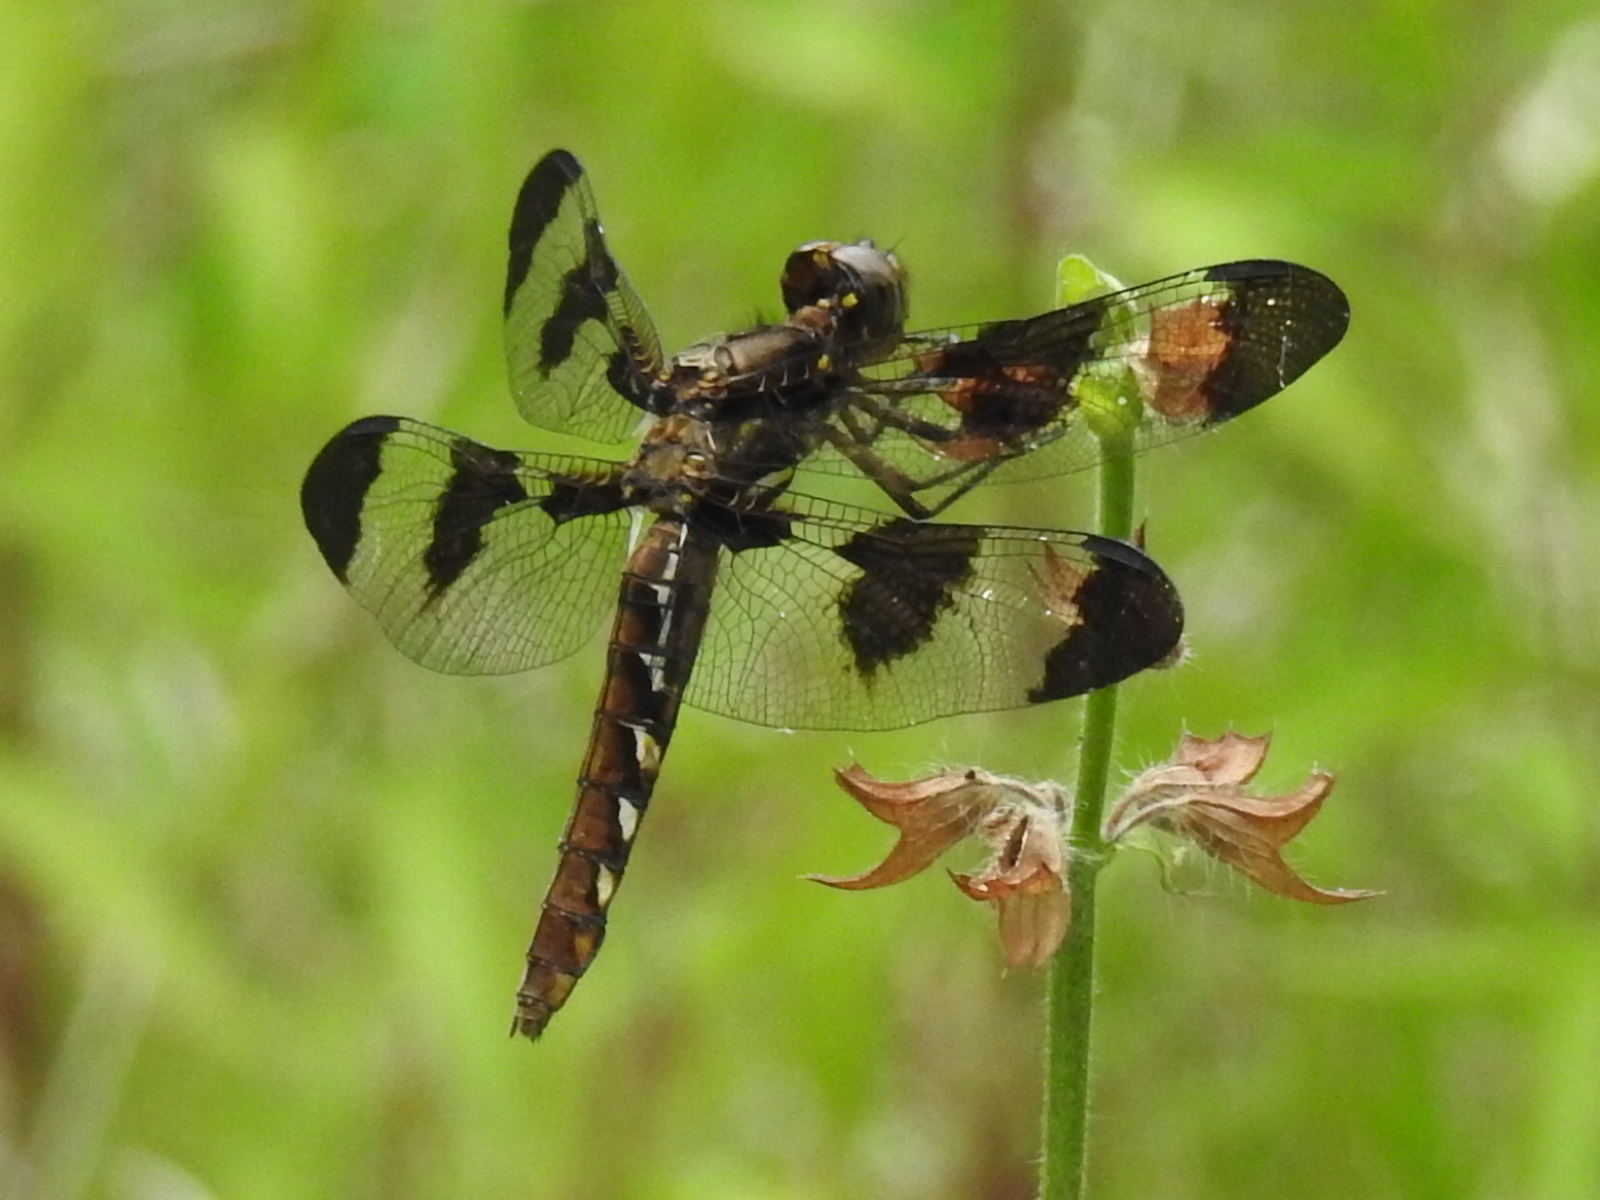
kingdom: Animalia
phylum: Arthropoda
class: Insecta
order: Odonata
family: Libellulidae
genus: Plathemis
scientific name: Plathemis lydia
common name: Common whitetail
